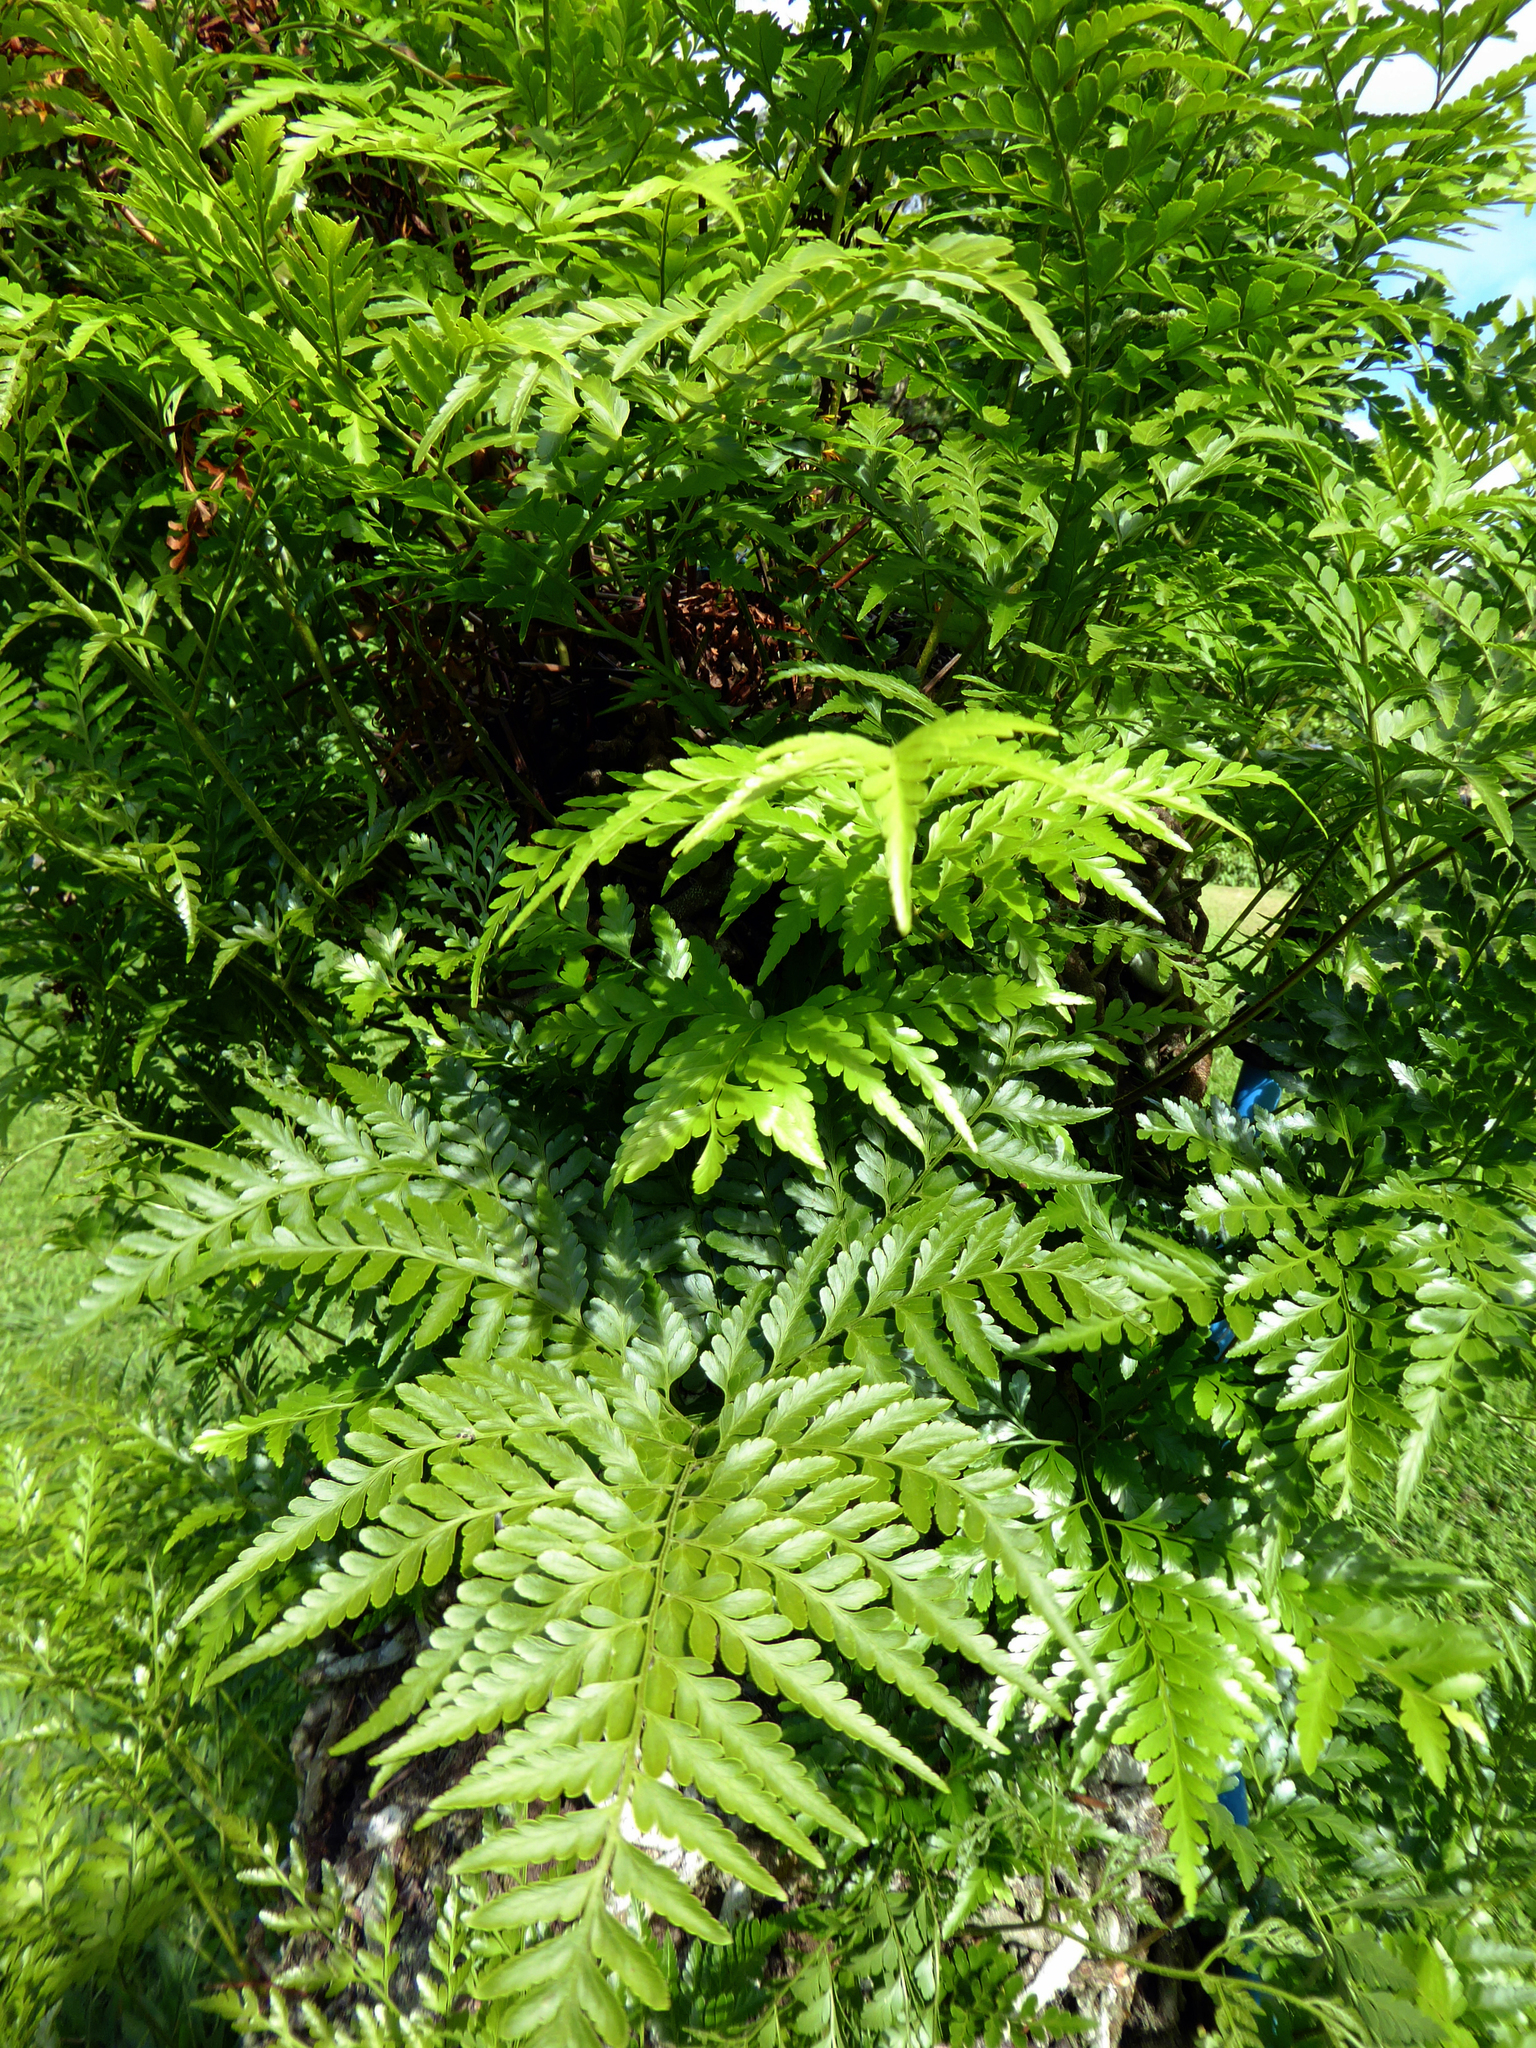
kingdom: Plantae
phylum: Tracheophyta
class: Polypodiopsida
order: Polypodiales
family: Davalliaceae
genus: Davallia
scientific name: Davallia solida
